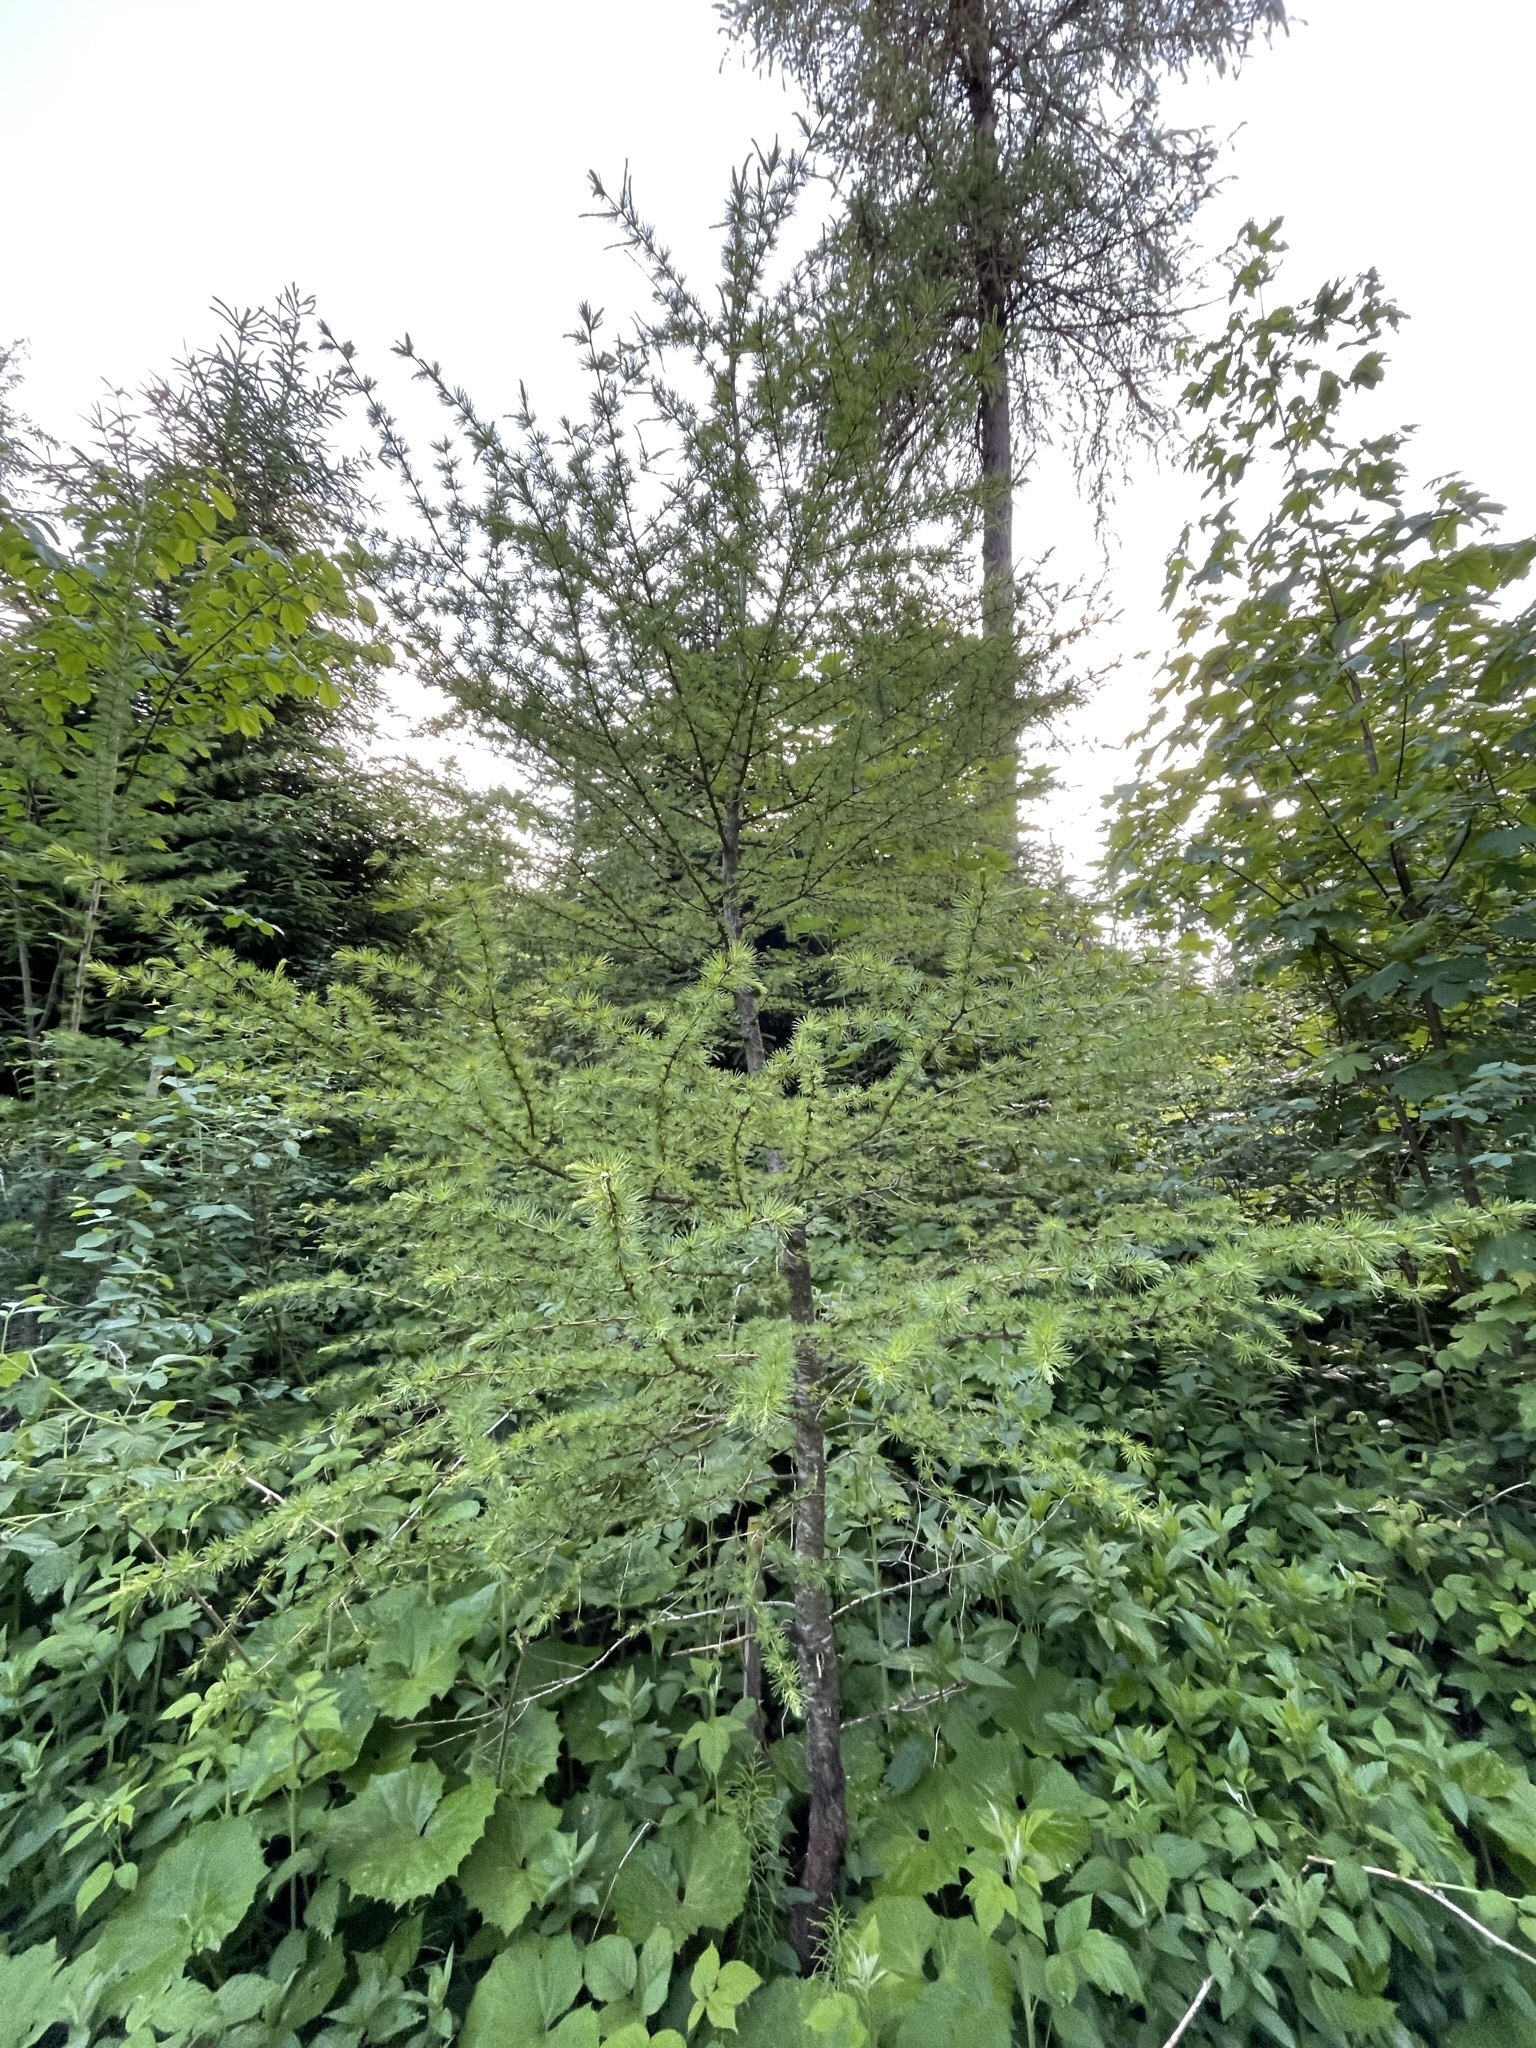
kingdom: Plantae
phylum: Tracheophyta
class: Pinopsida
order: Pinales
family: Pinaceae
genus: Larix
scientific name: Larix decidua
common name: European larch
